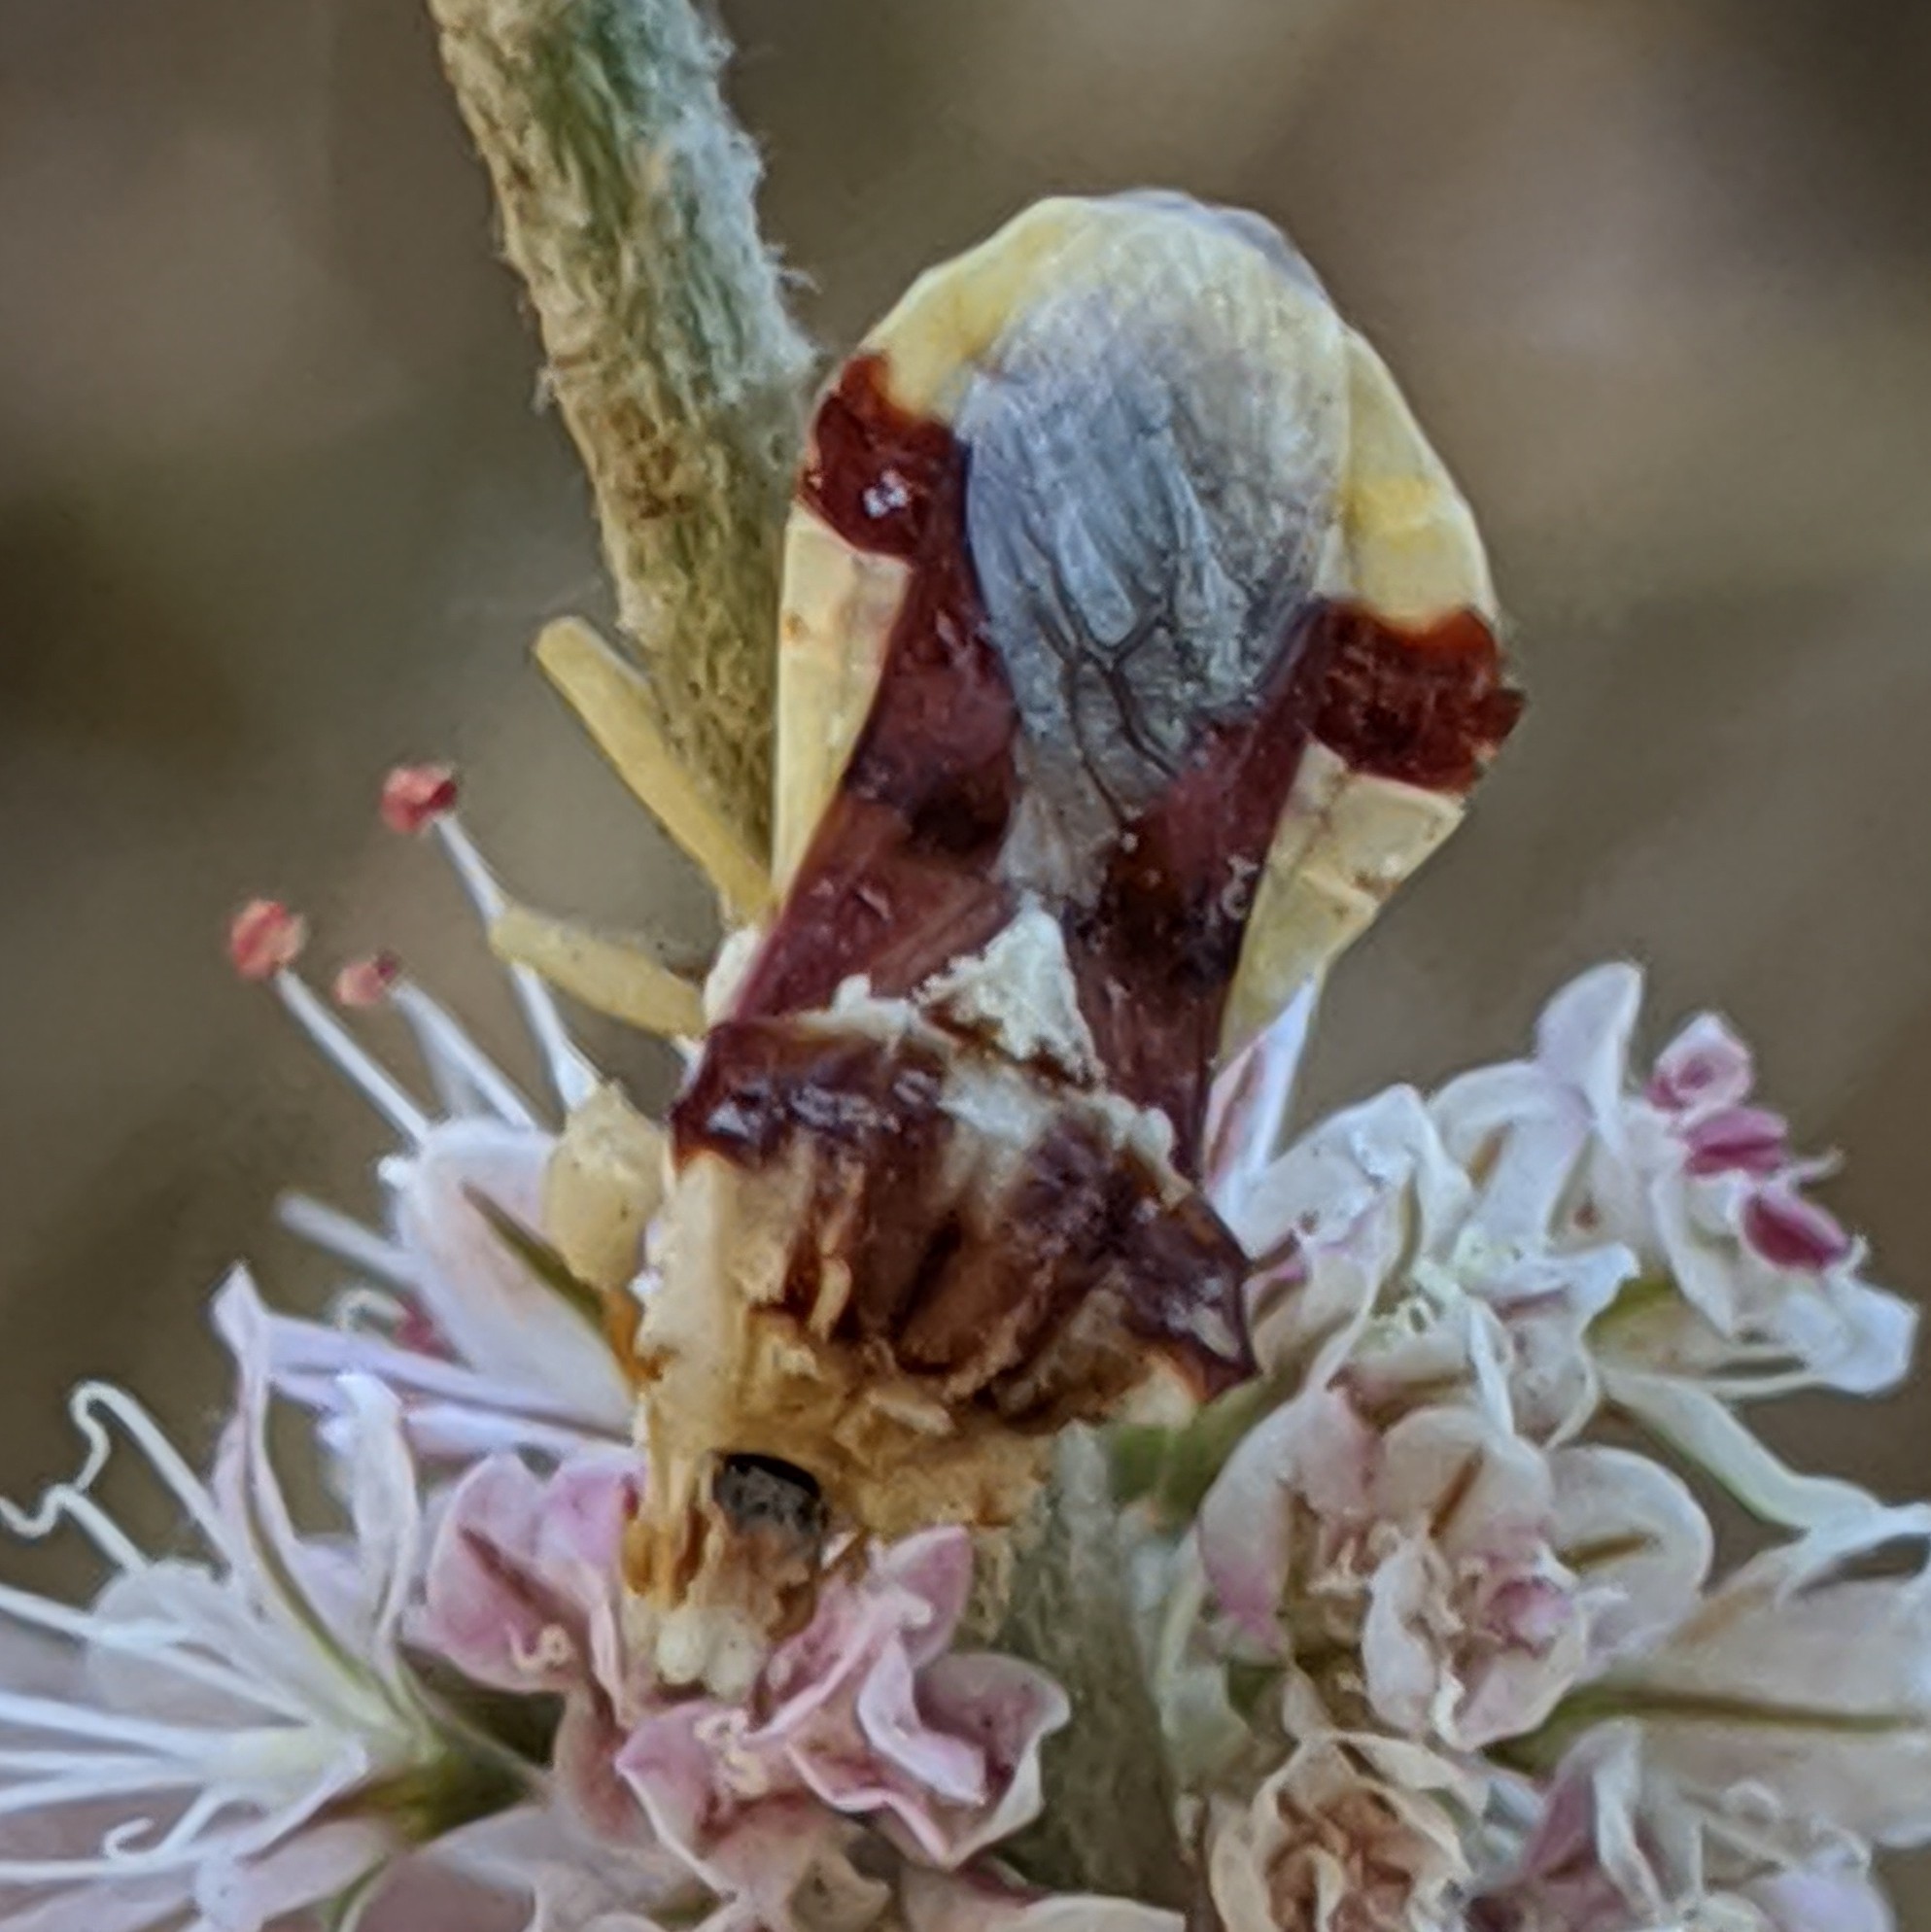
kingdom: Animalia
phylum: Arthropoda
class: Insecta
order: Hemiptera
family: Reduviidae
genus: Phymata
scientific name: Phymata pacifica
